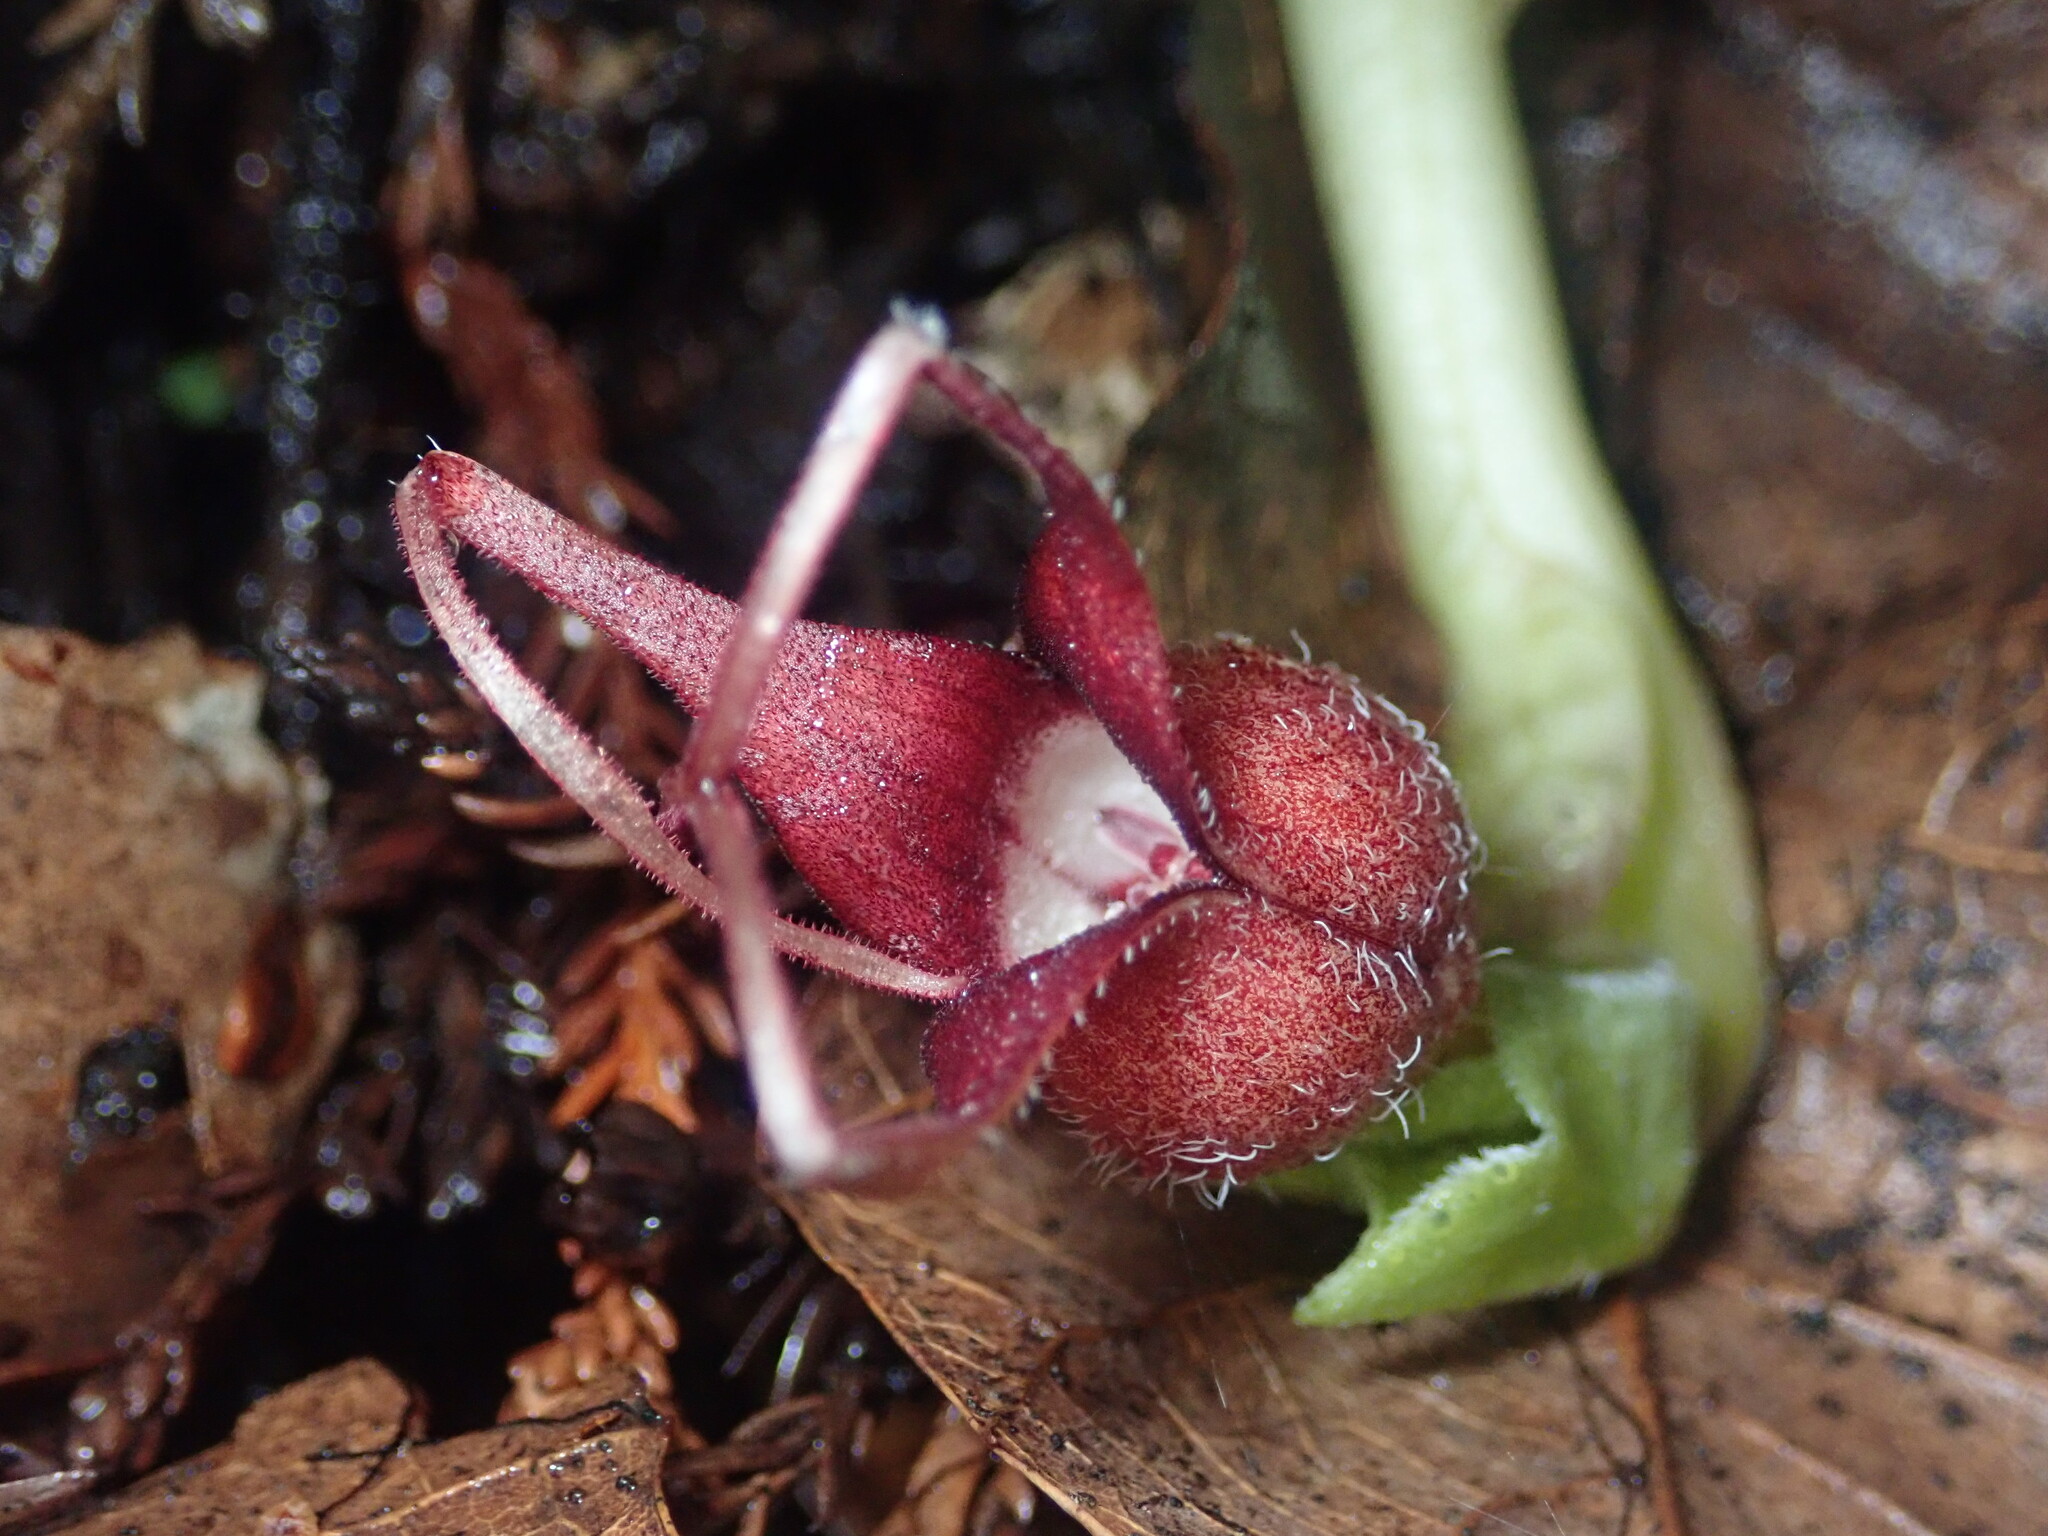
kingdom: Plantae
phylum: Tracheophyta
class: Magnoliopsida
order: Piperales
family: Aristolochiaceae
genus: Asarum
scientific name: Asarum caudatum
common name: Wild ginger
